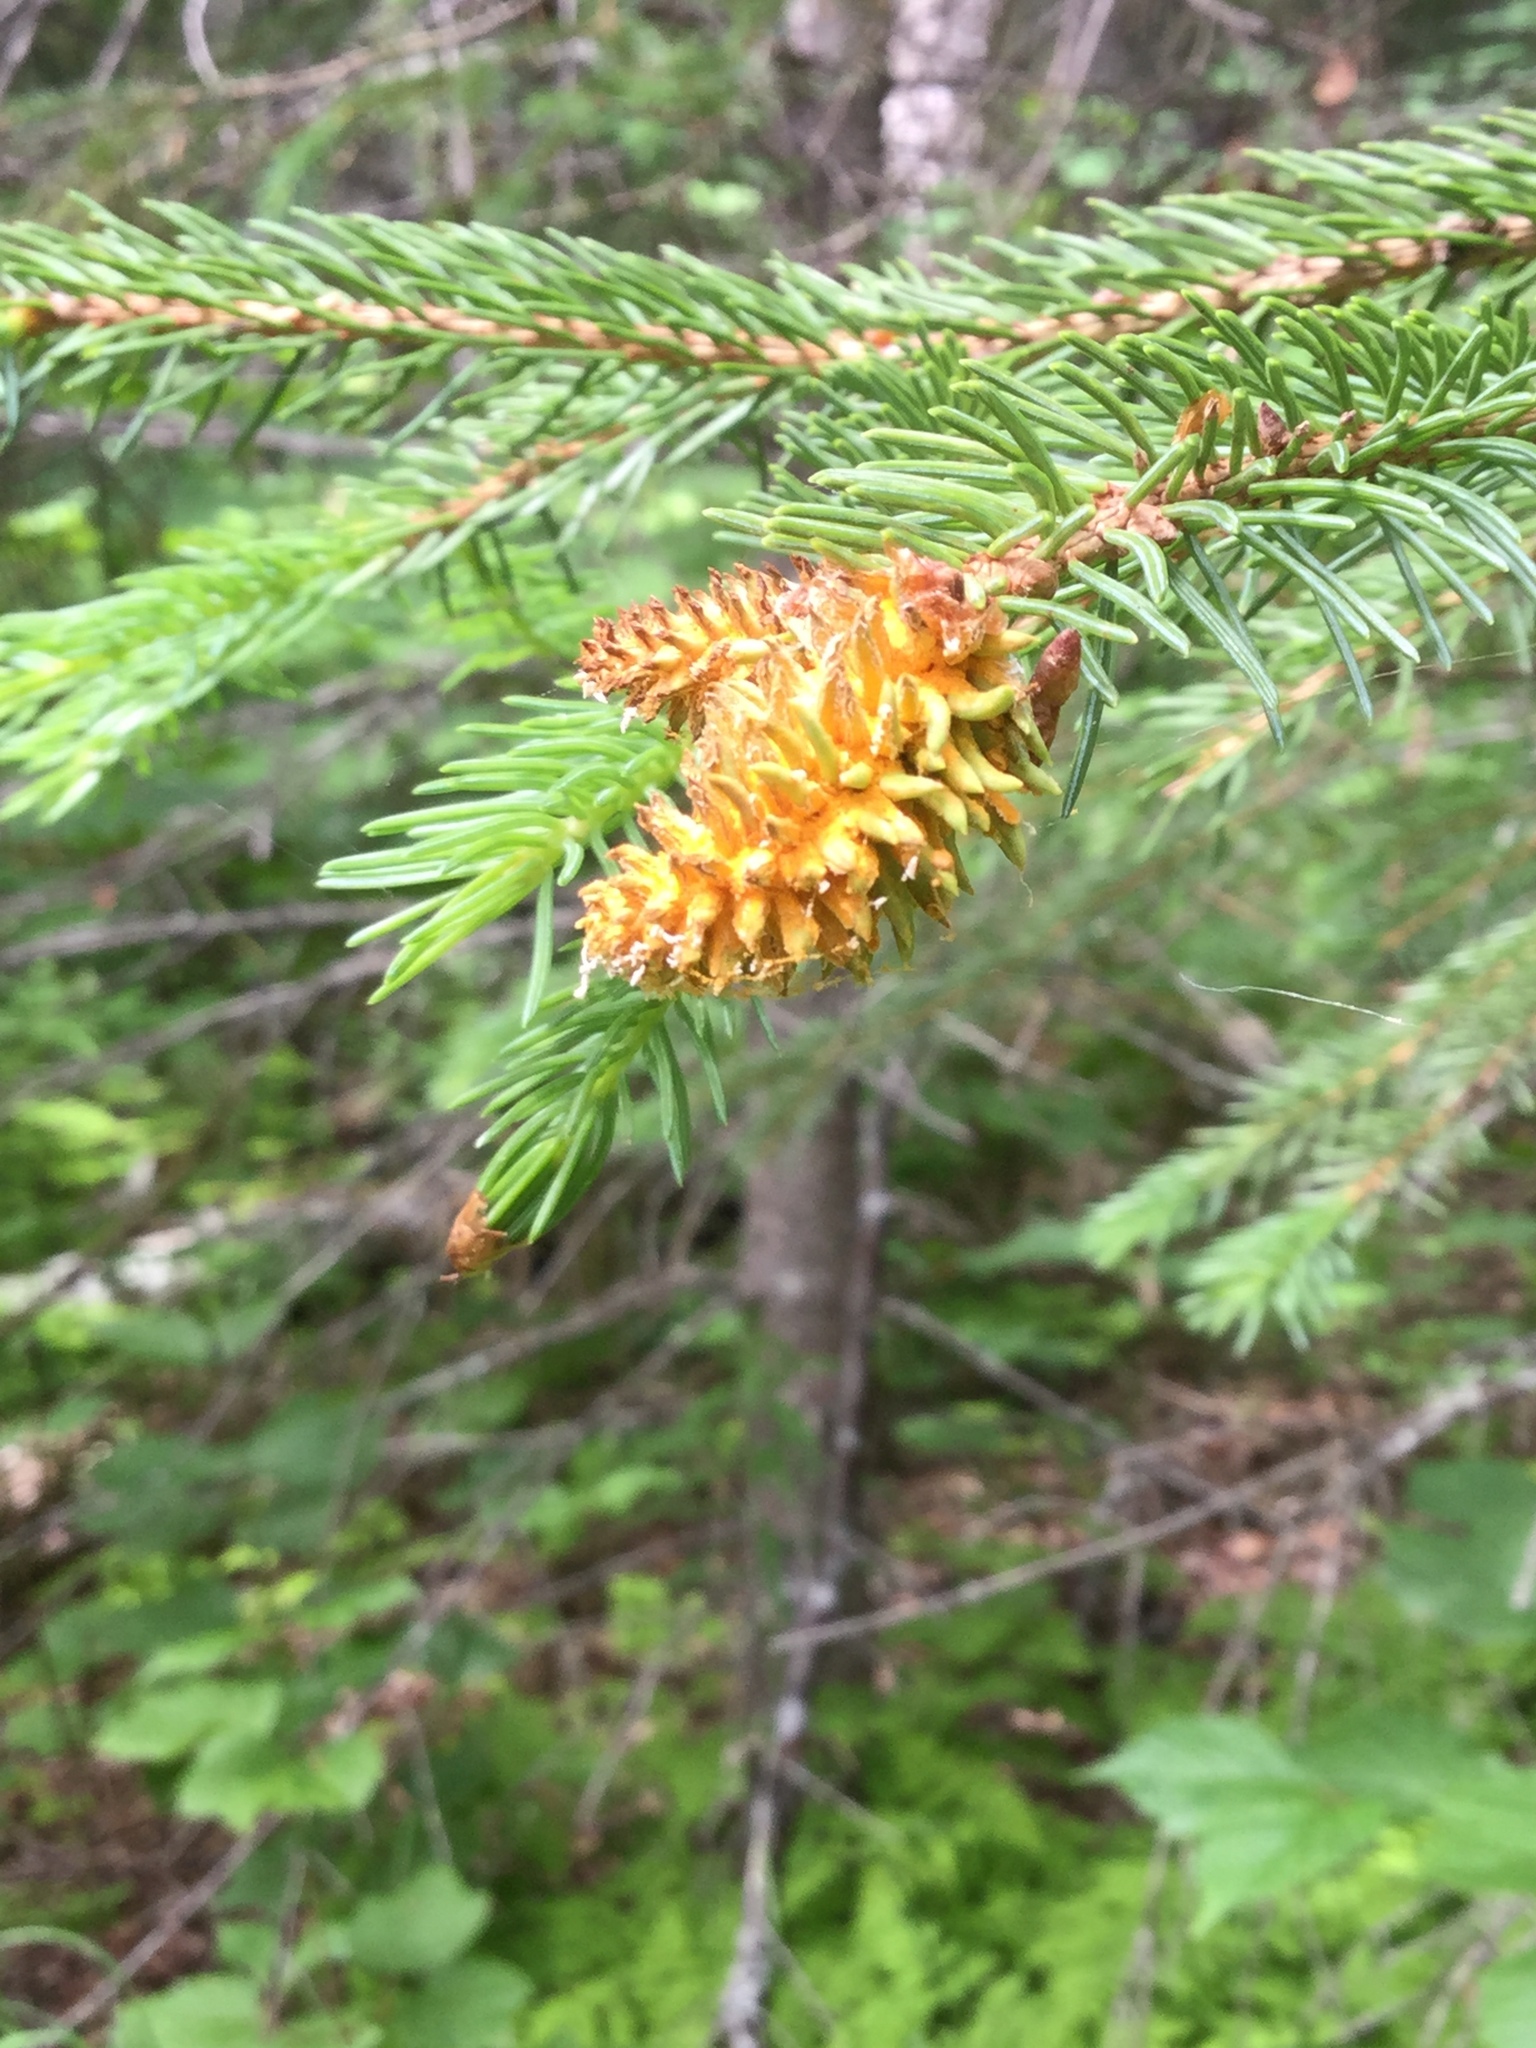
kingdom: Fungi
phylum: Basidiomycota
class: Pucciniomycetes
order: Pucciniales
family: Coleosporiaceae
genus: Chrysomyxa
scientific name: Chrysomyxa woroninii
